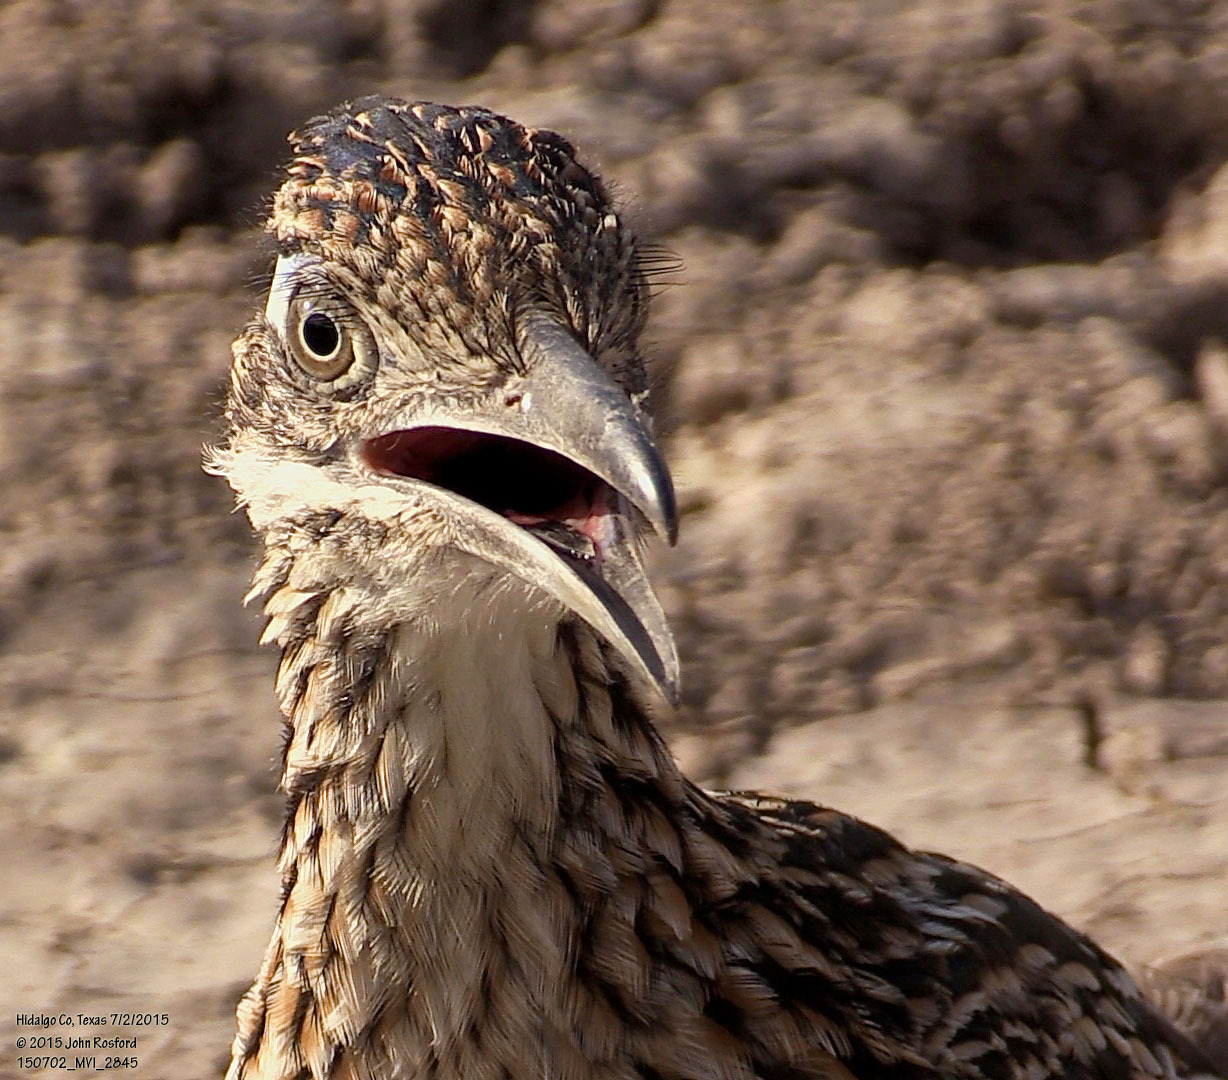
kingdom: Animalia
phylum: Chordata
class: Aves
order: Cuculiformes
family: Cuculidae
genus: Geococcyx
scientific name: Geococcyx californianus
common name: Greater roadrunner
